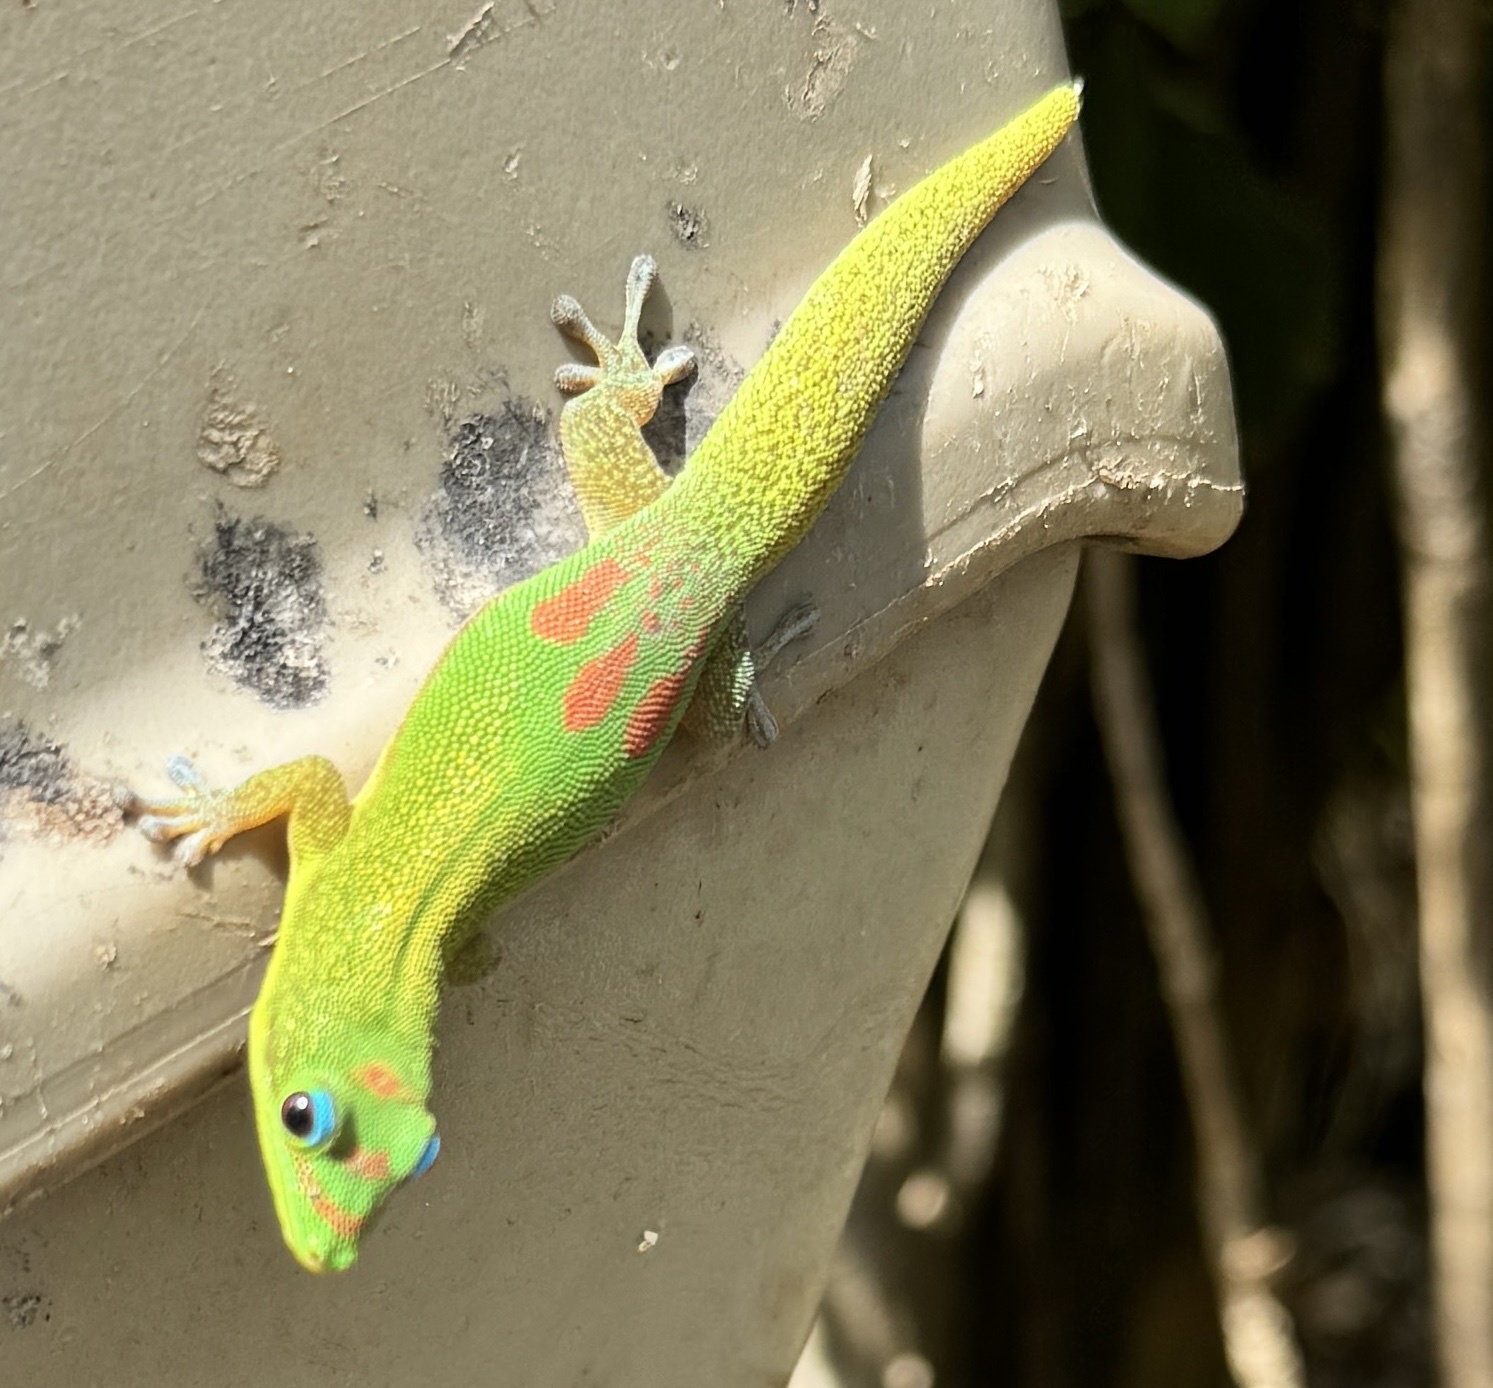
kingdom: Animalia
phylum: Chordata
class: Squamata
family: Gekkonidae
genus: Phelsuma
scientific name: Phelsuma laticauda
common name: Gold dust day gecko
